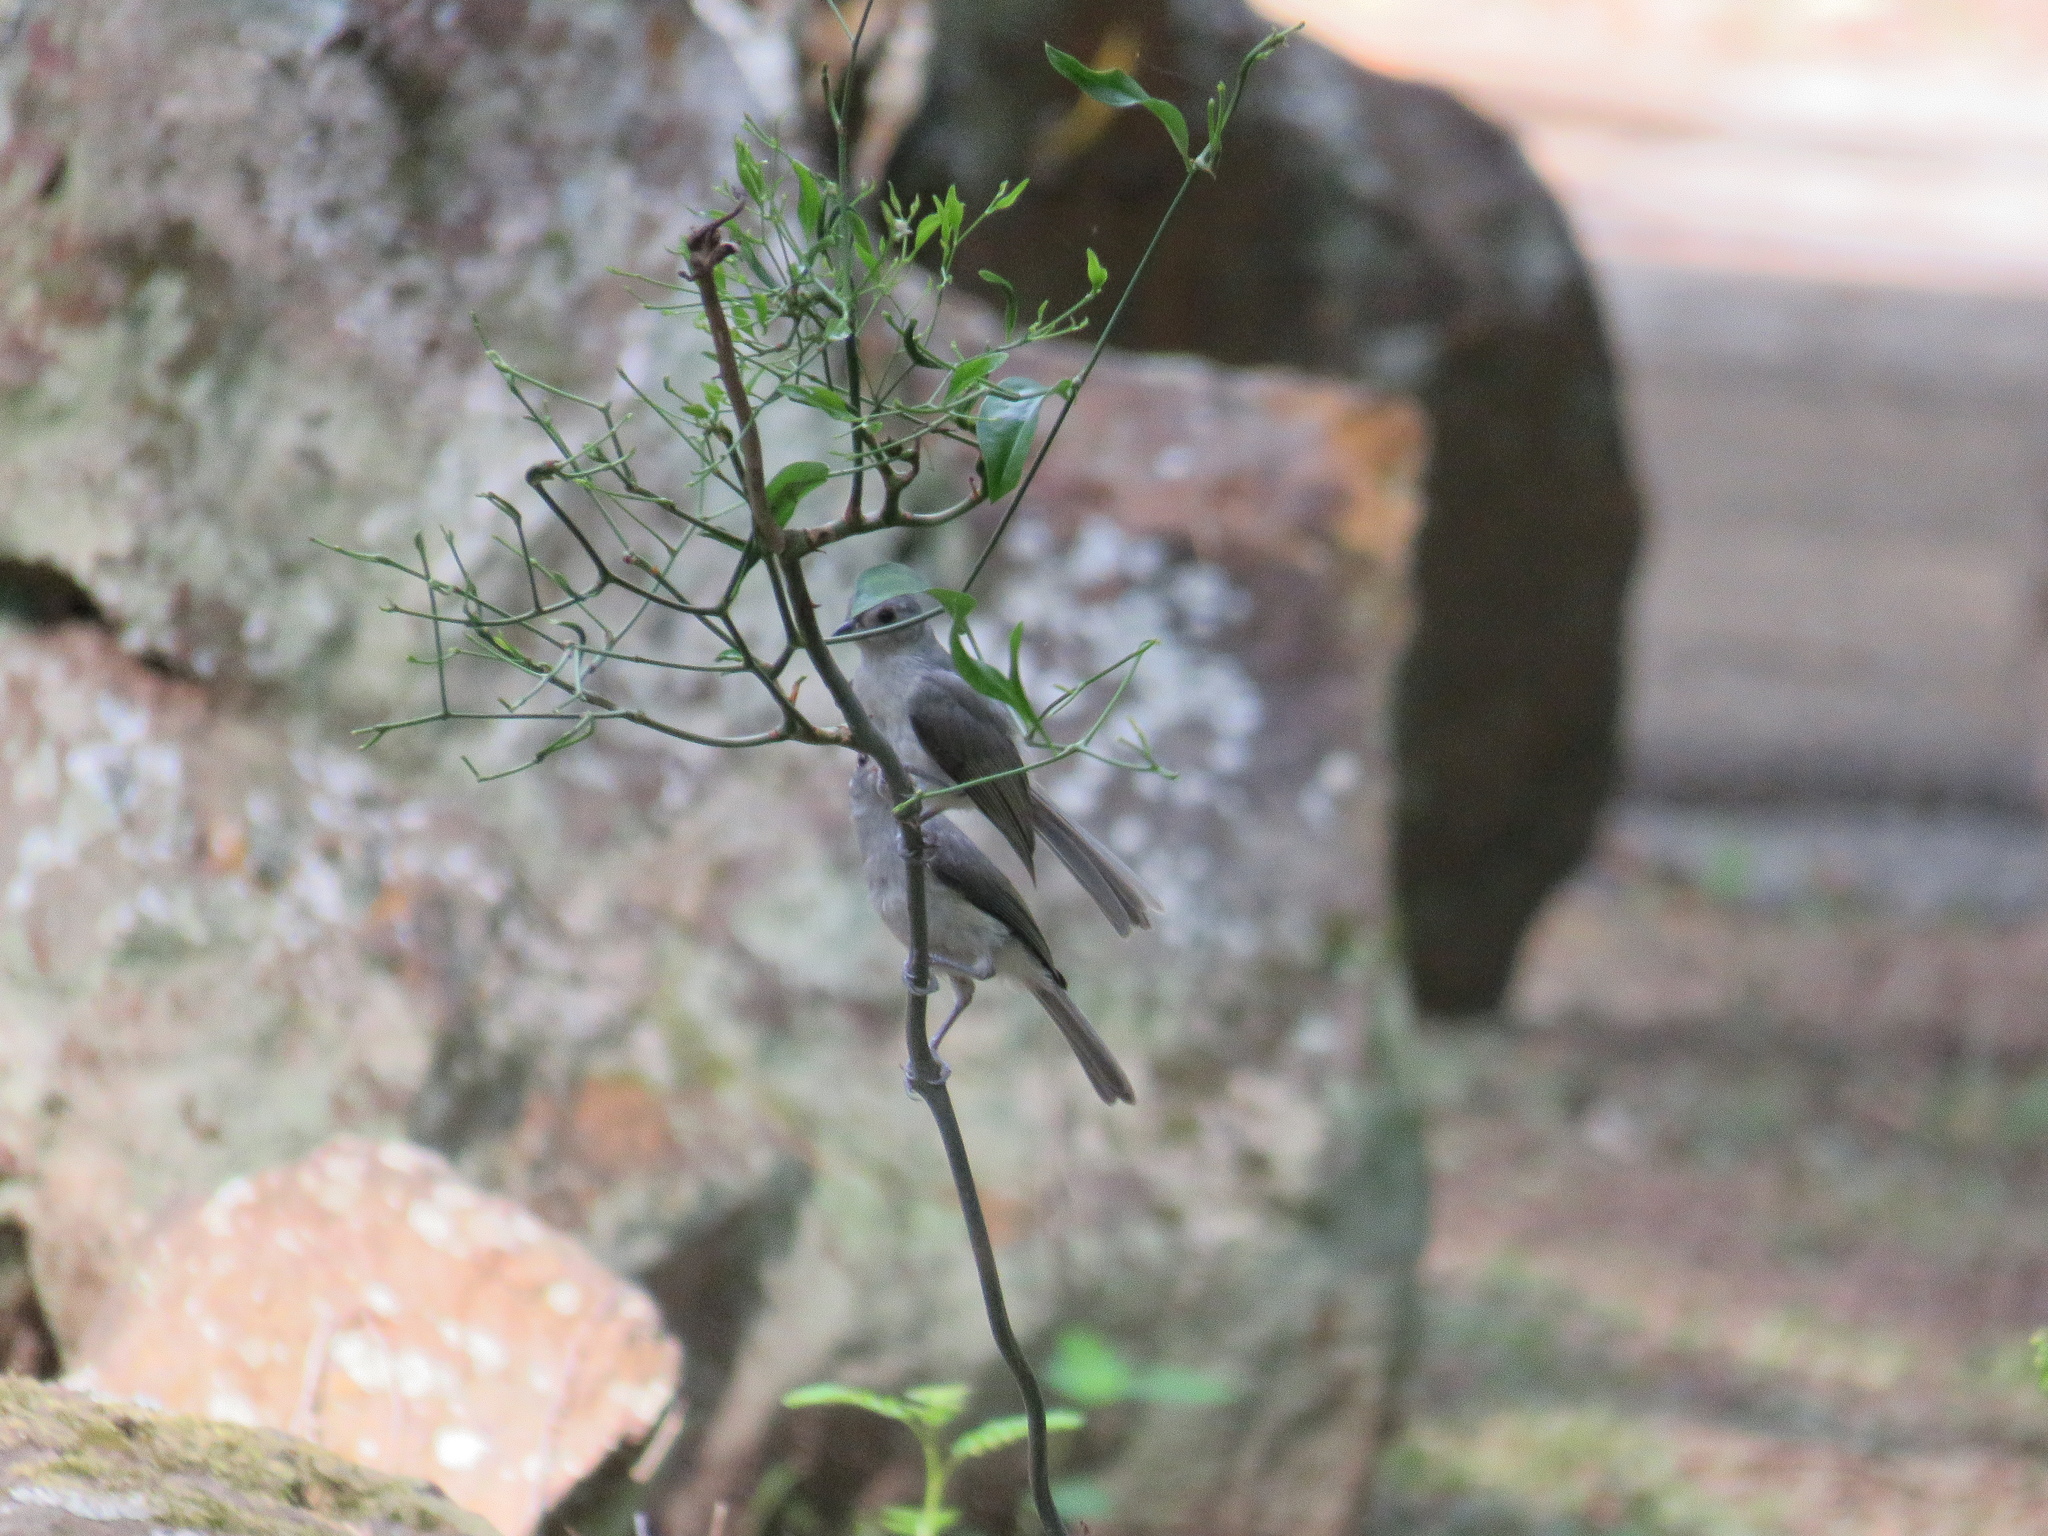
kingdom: Animalia
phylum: Chordata
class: Aves
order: Passeriformes
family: Paridae
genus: Baeolophus
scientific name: Baeolophus bicolor
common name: Tufted titmouse
